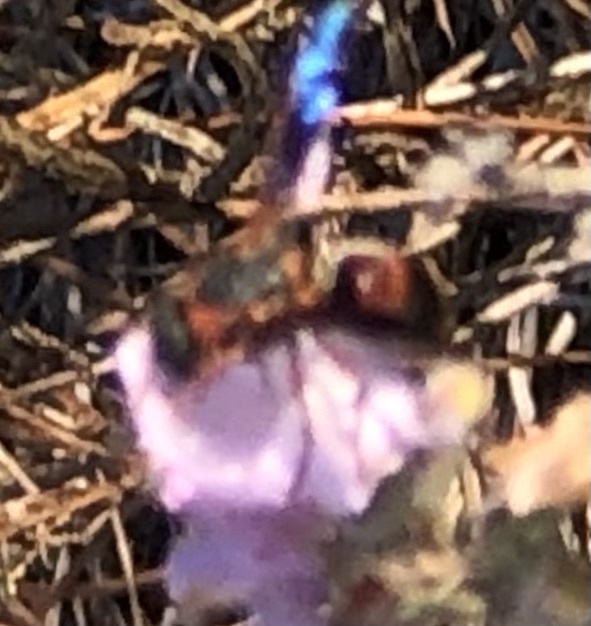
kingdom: Animalia
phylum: Arthropoda
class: Insecta
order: Hymenoptera
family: Eumenidae
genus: Pachodynerus
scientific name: Pachodynerus erynnis
